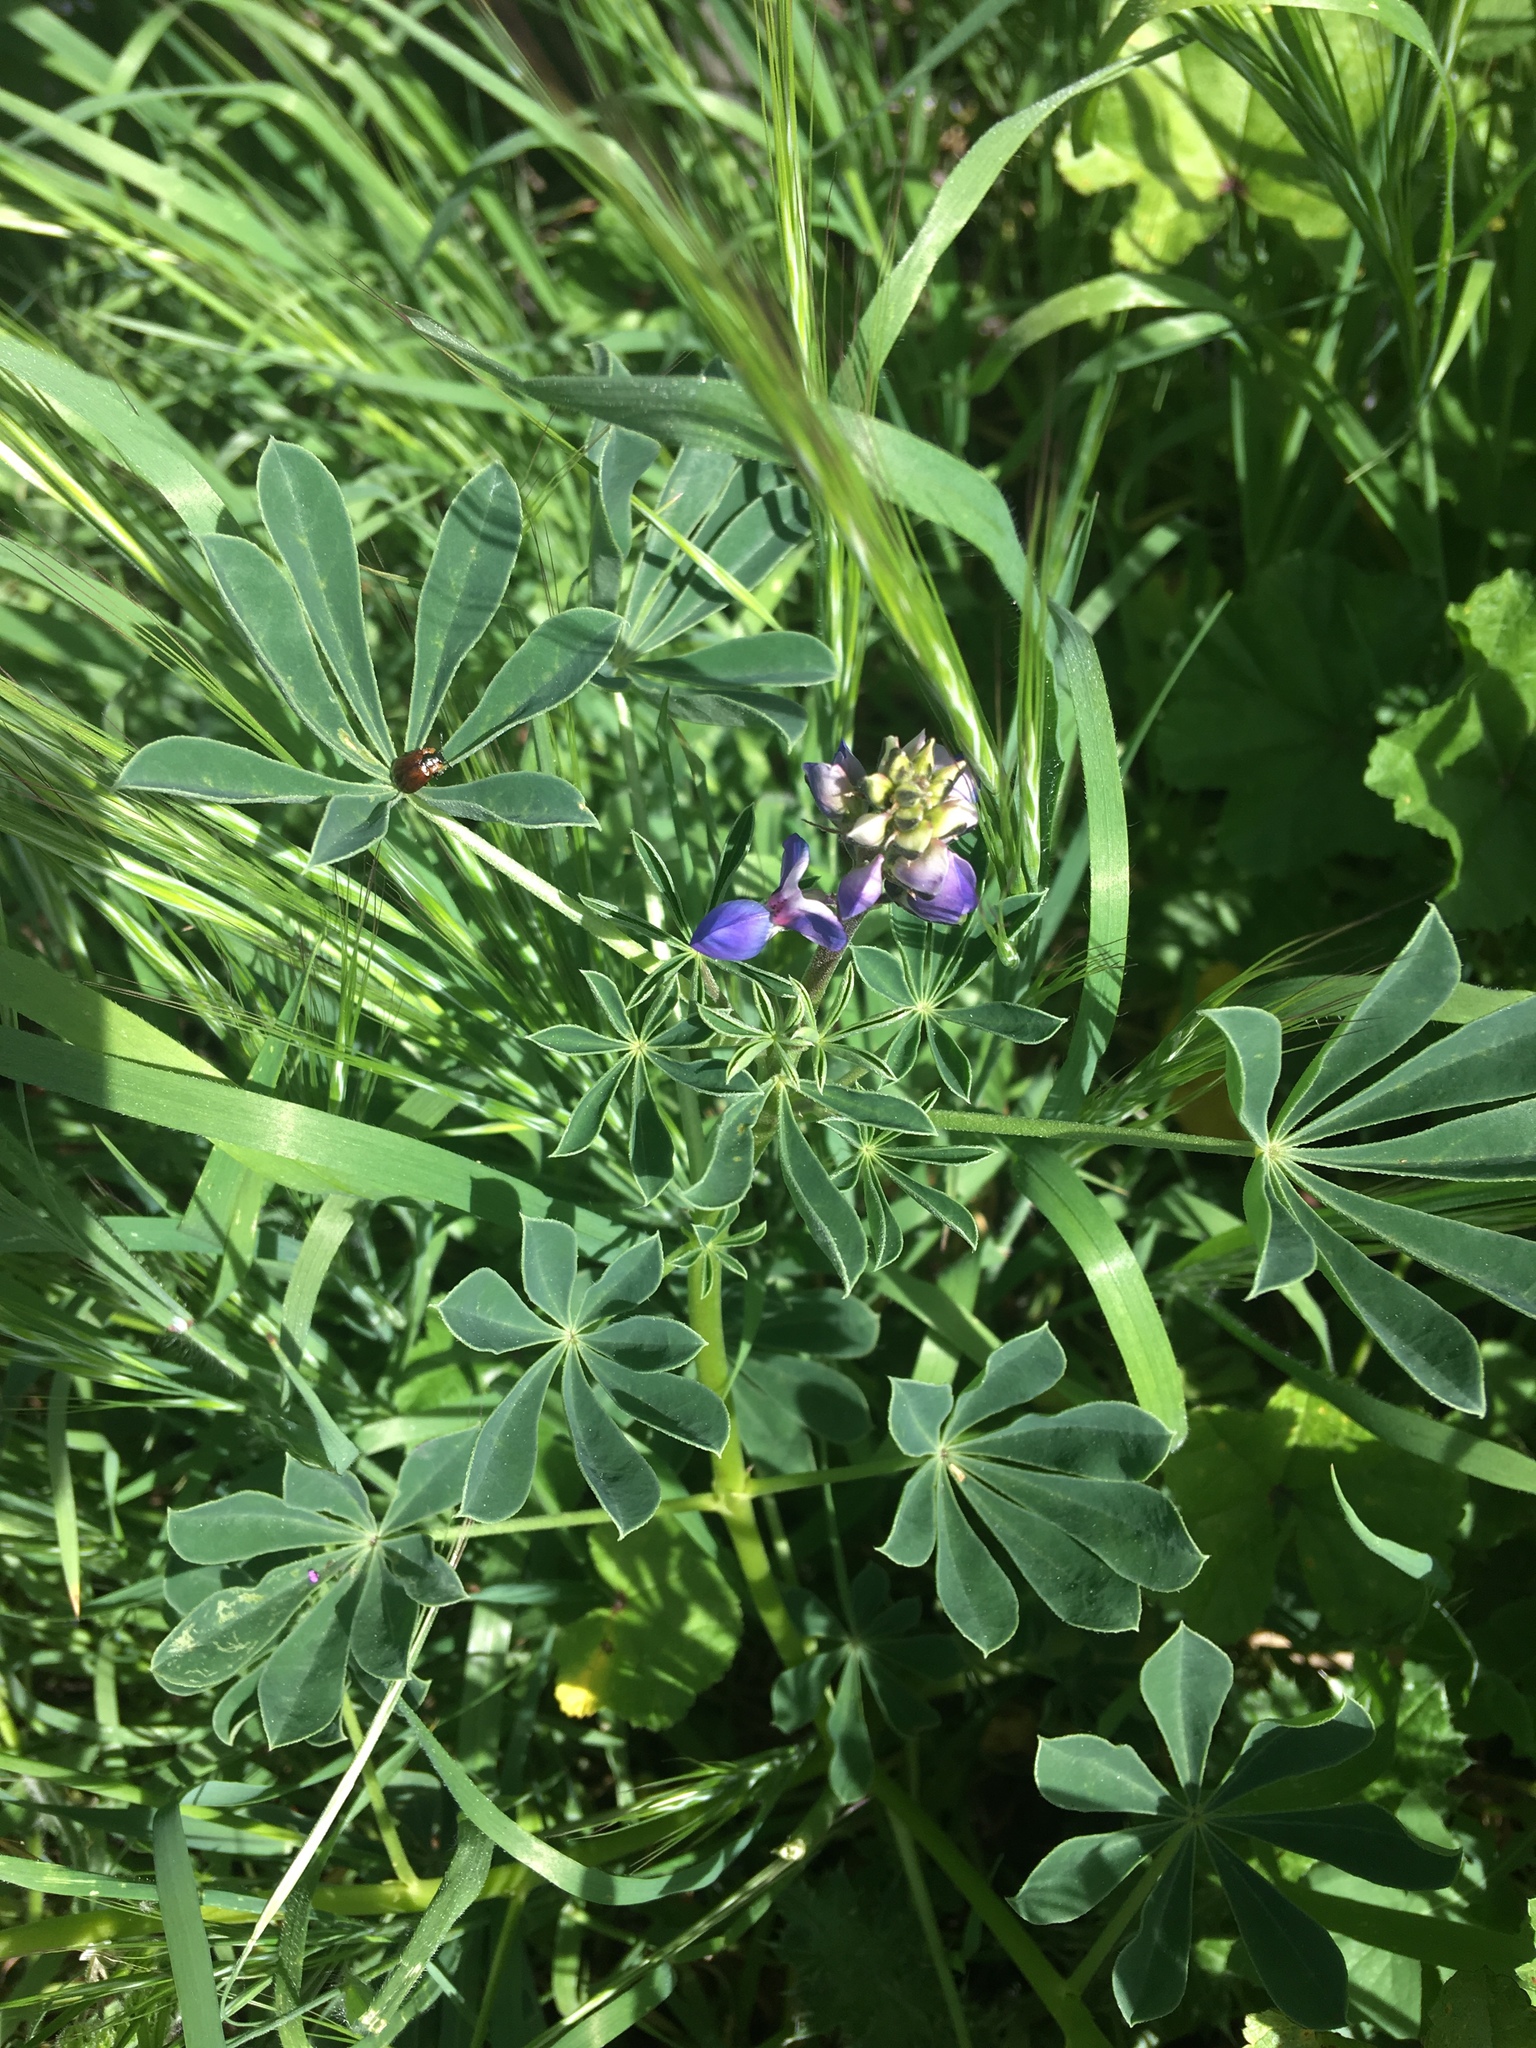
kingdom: Plantae
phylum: Tracheophyta
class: Magnoliopsida
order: Fabales
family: Fabaceae
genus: Lupinus
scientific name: Lupinus succulentus
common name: Arroyo lupine
